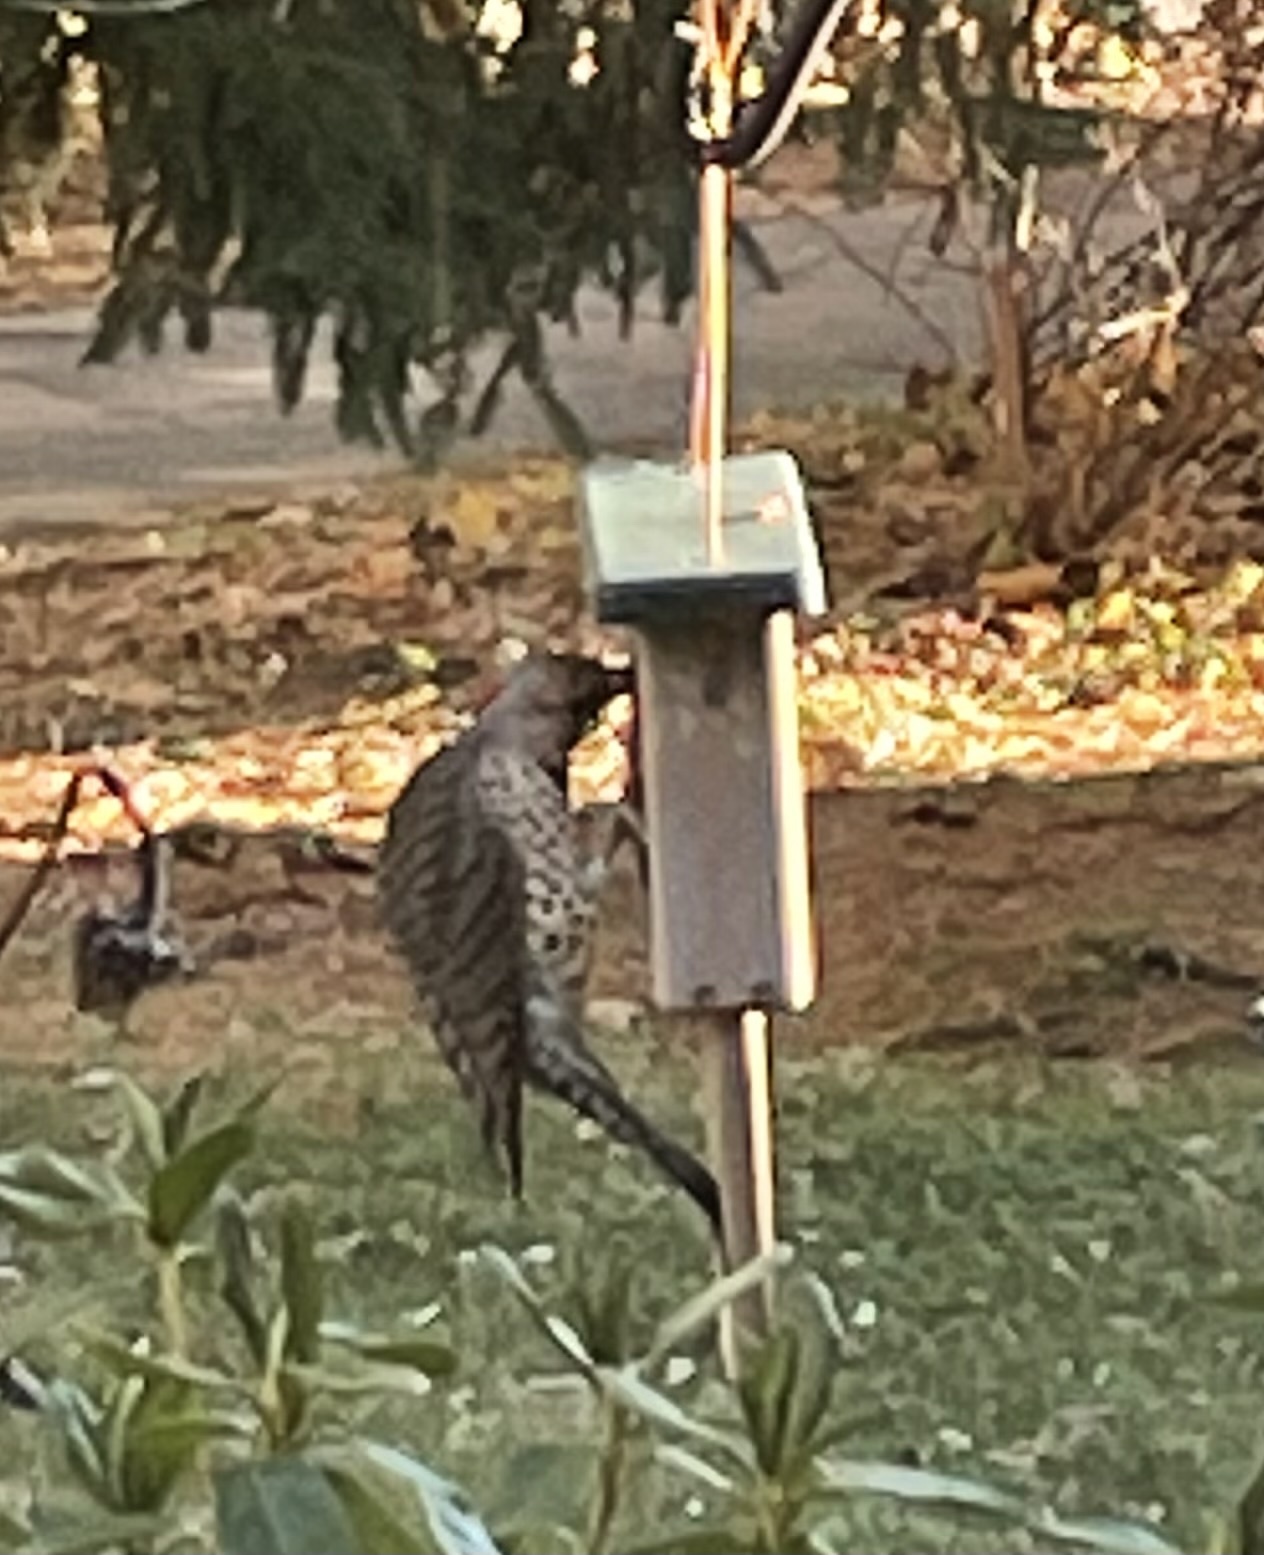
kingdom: Animalia
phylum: Chordata
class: Aves
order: Piciformes
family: Picidae
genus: Colaptes
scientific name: Colaptes auratus
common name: Northern flicker
